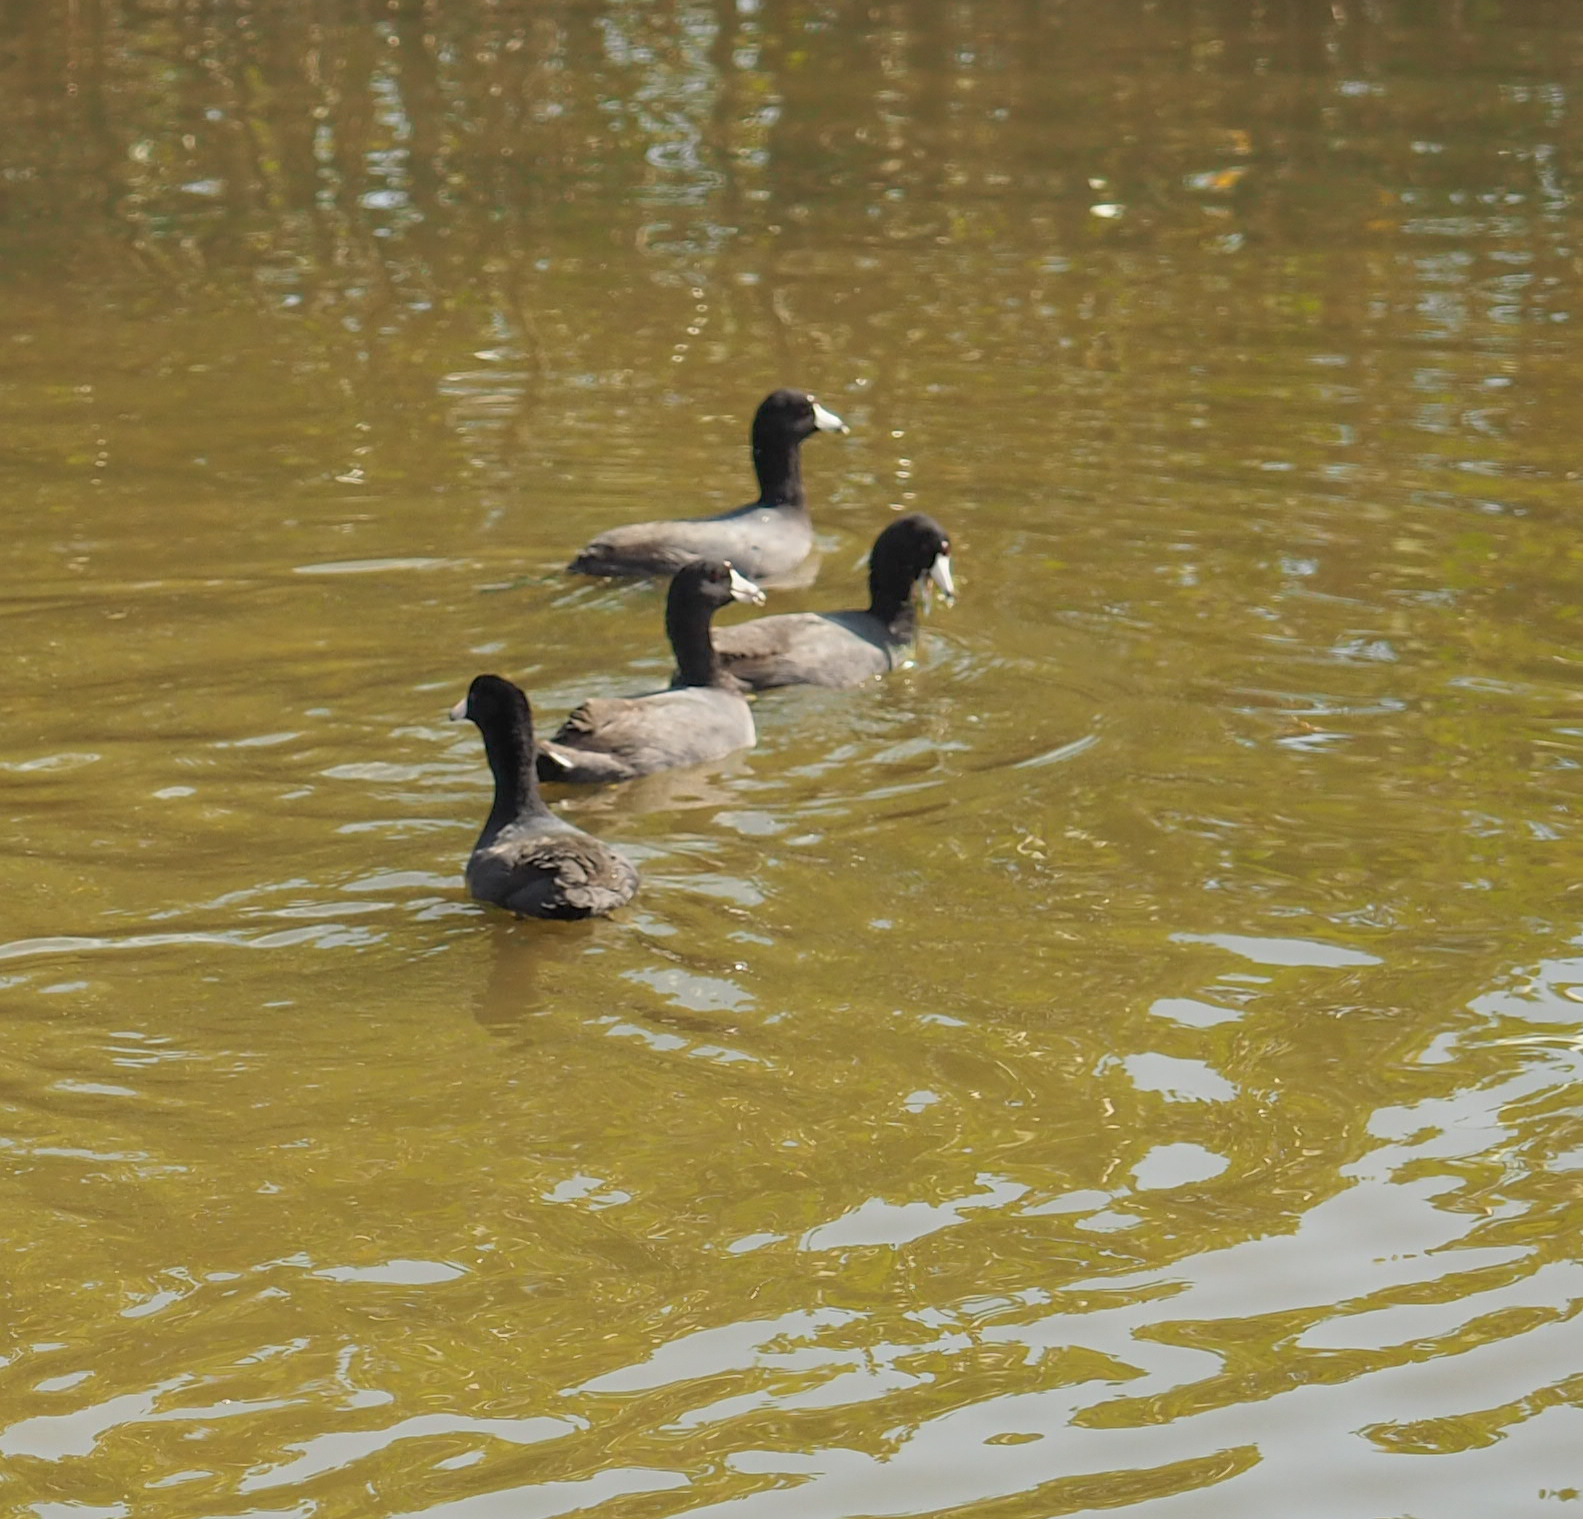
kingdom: Animalia
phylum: Chordata
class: Aves
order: Gruiformes
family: Rallidae
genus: Fulica
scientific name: Fulica americana
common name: American coot
